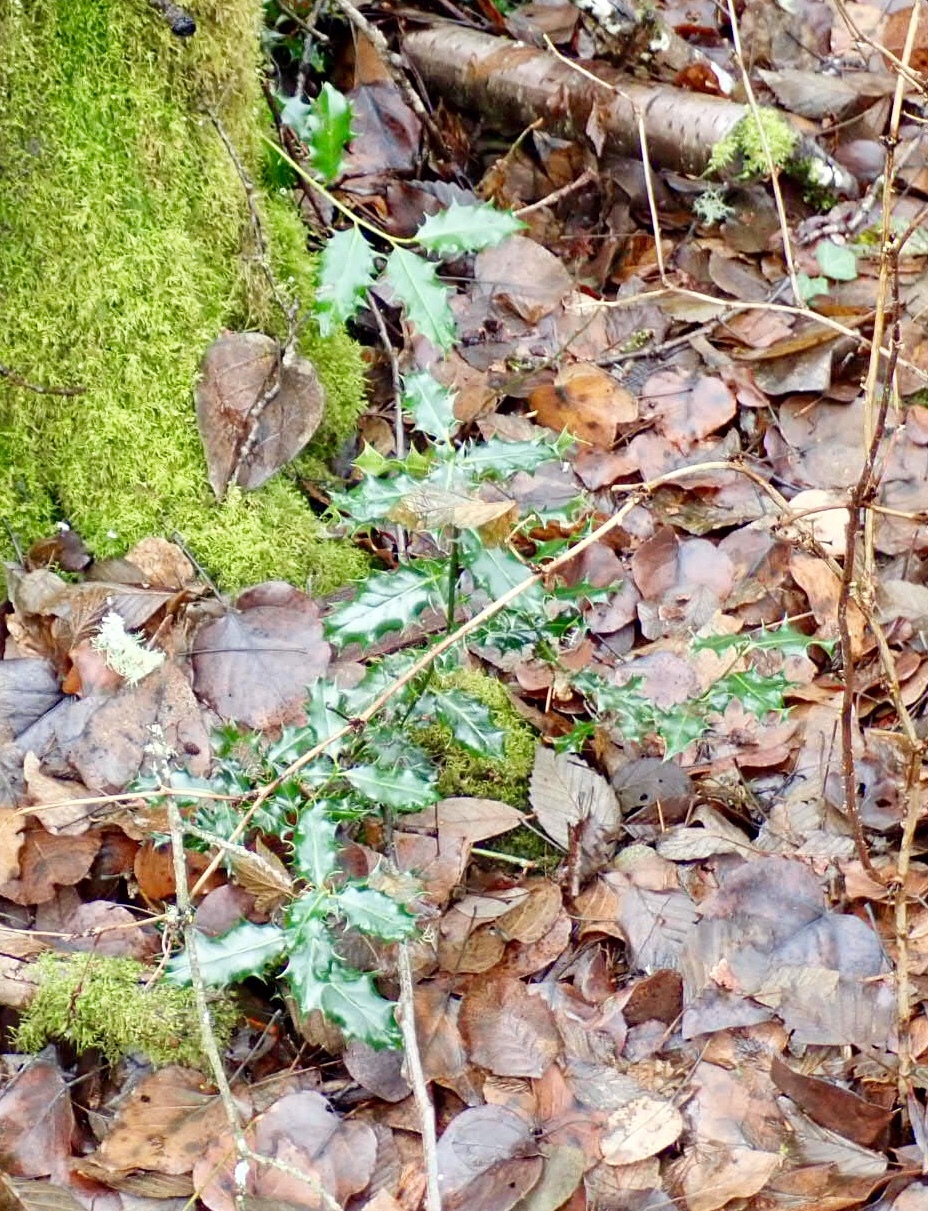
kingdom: Plantae
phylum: Tracheophyta
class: Magnoliopsida
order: Aquifoliales
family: Aquifoliaceae
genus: Ilex
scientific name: Ilex aquifolium
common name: English holly
